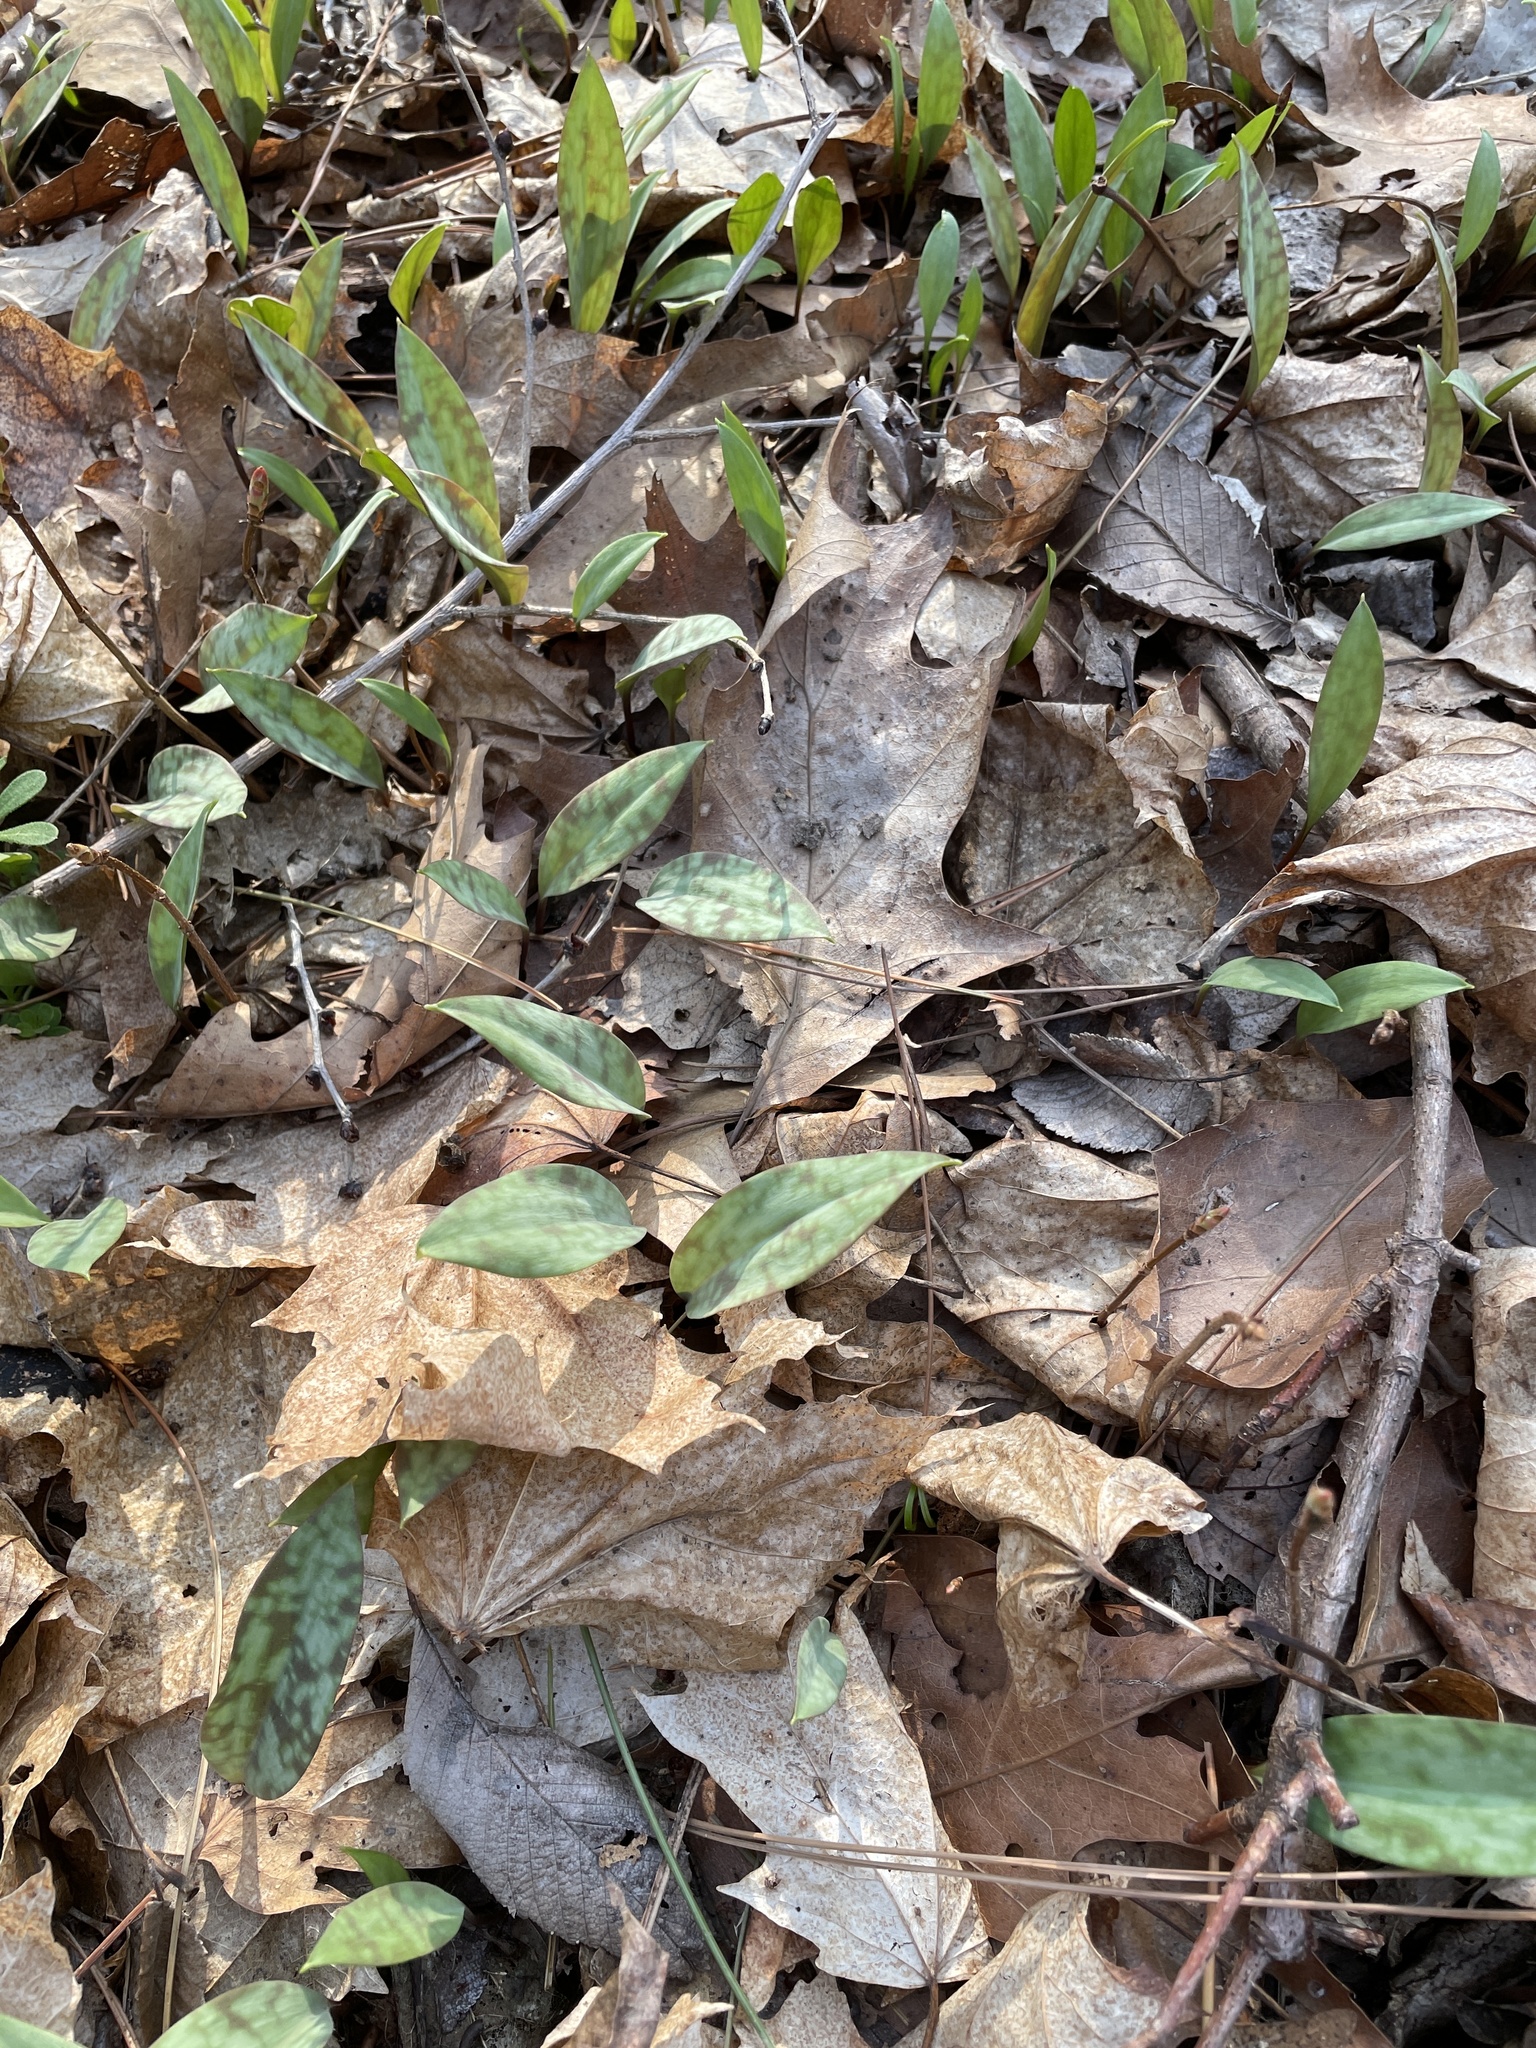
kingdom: Plantae
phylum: Tracheophyta
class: Liliopsida
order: Liliales
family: Liliaceae
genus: Erythronium
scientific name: Erythronium americanum
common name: Yellow adder's-tongue
